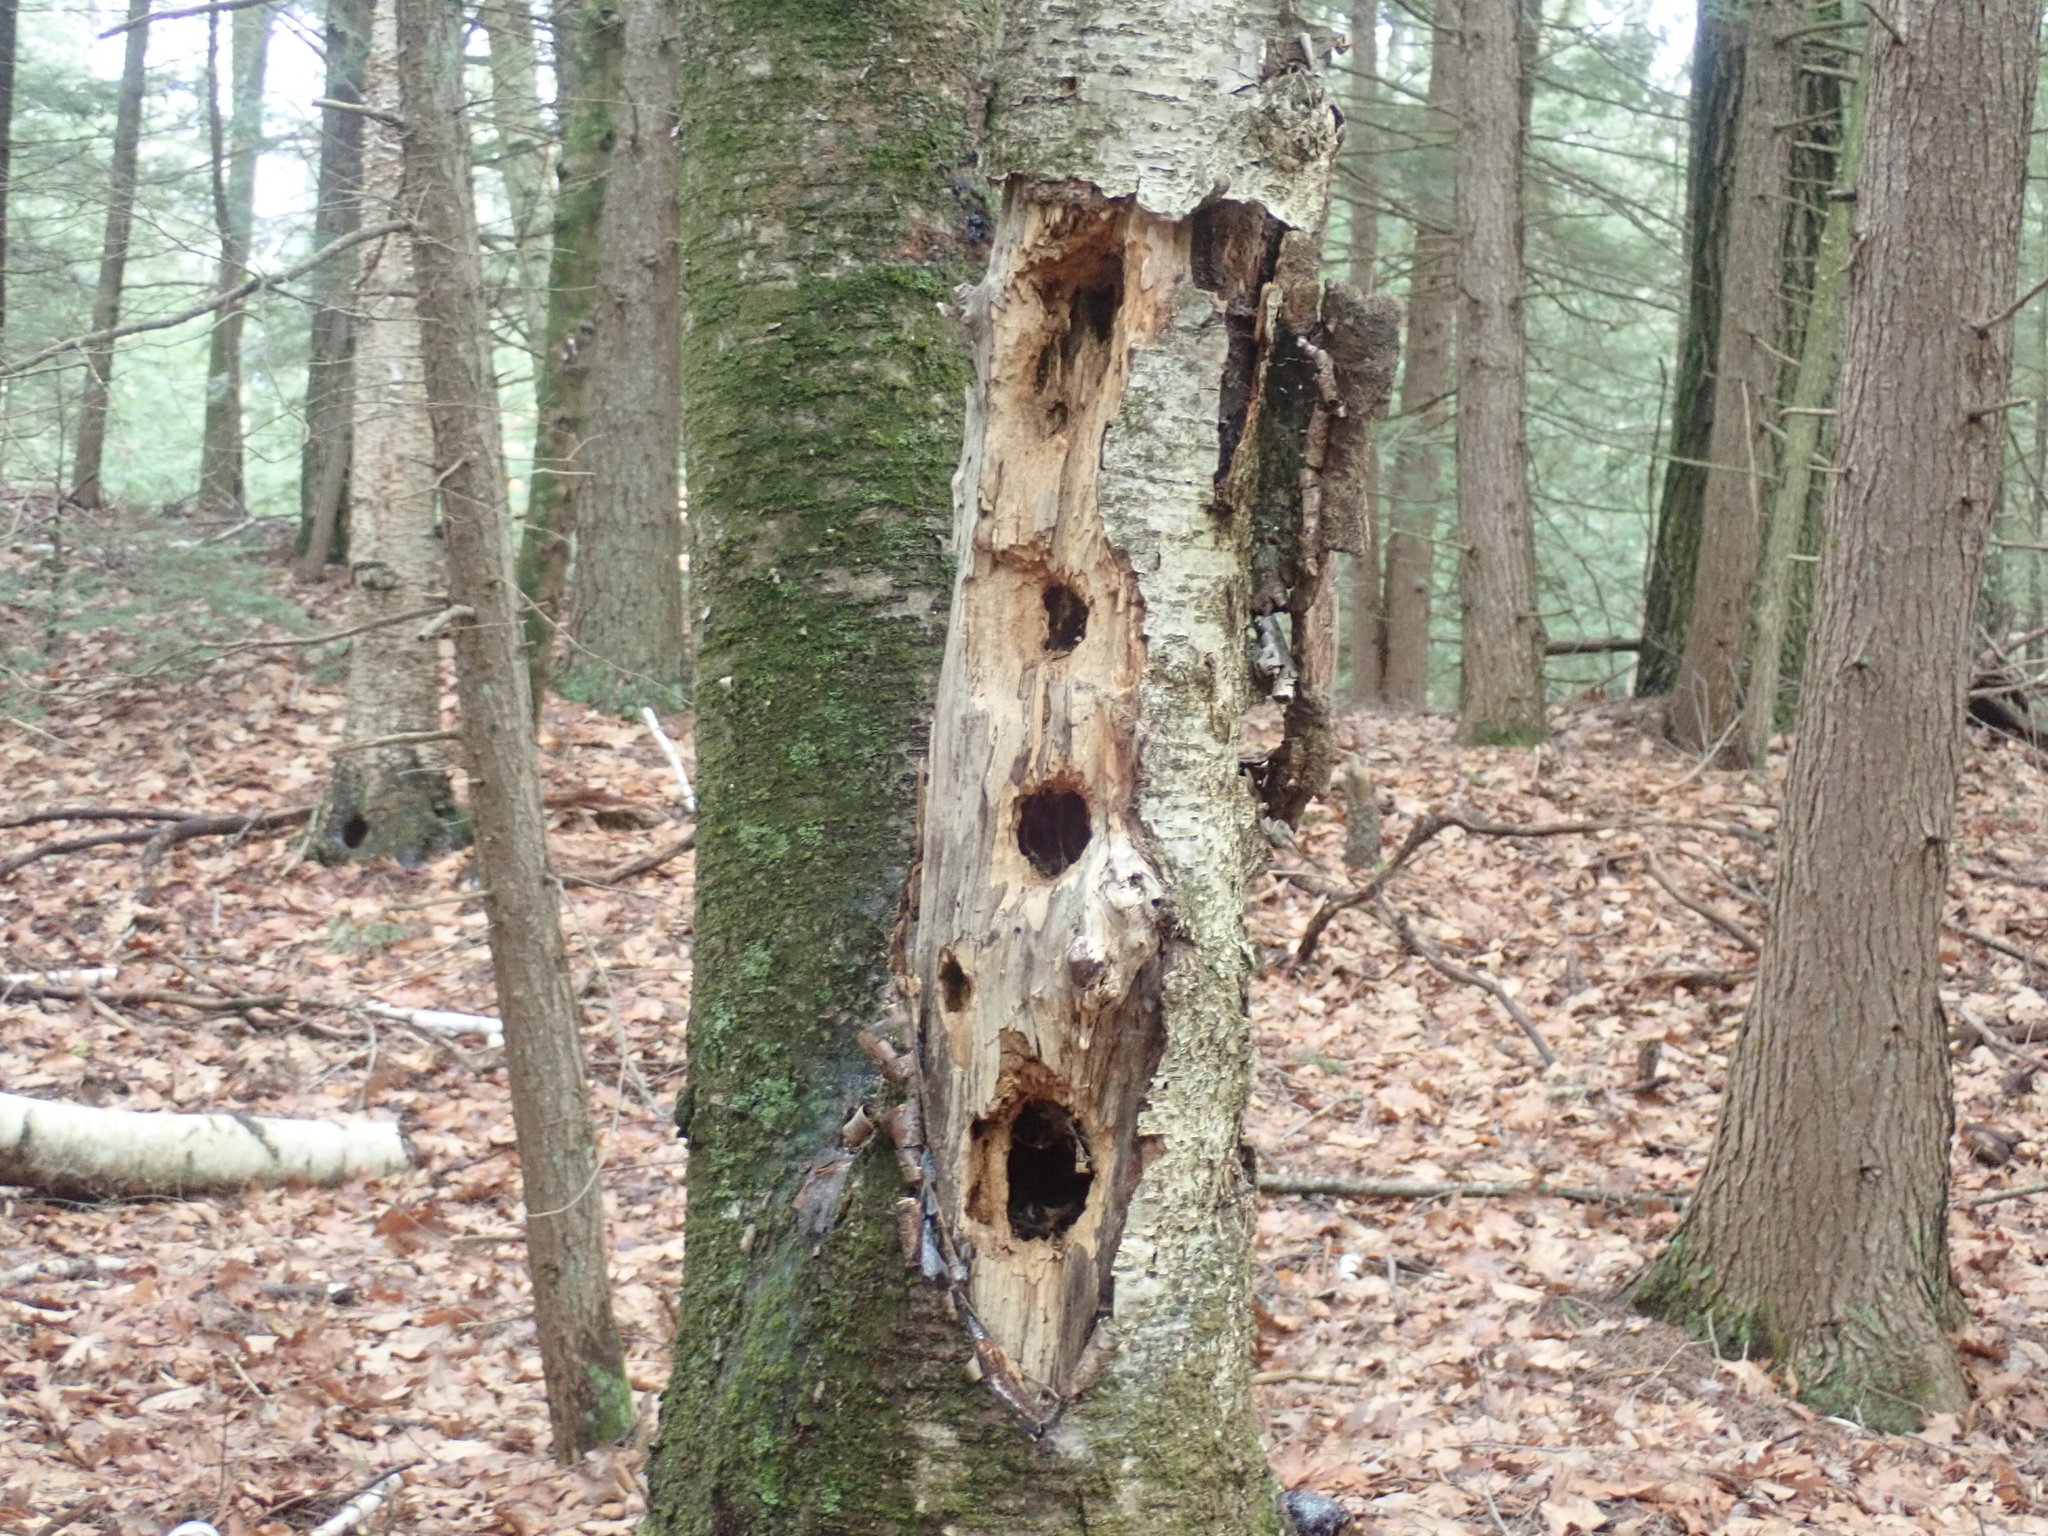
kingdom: Animalia
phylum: Chordata
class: Aves
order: Piciformes
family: Picidae
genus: Dryocopus
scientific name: Dryocopus pileatus
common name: Pileated woodpecker
